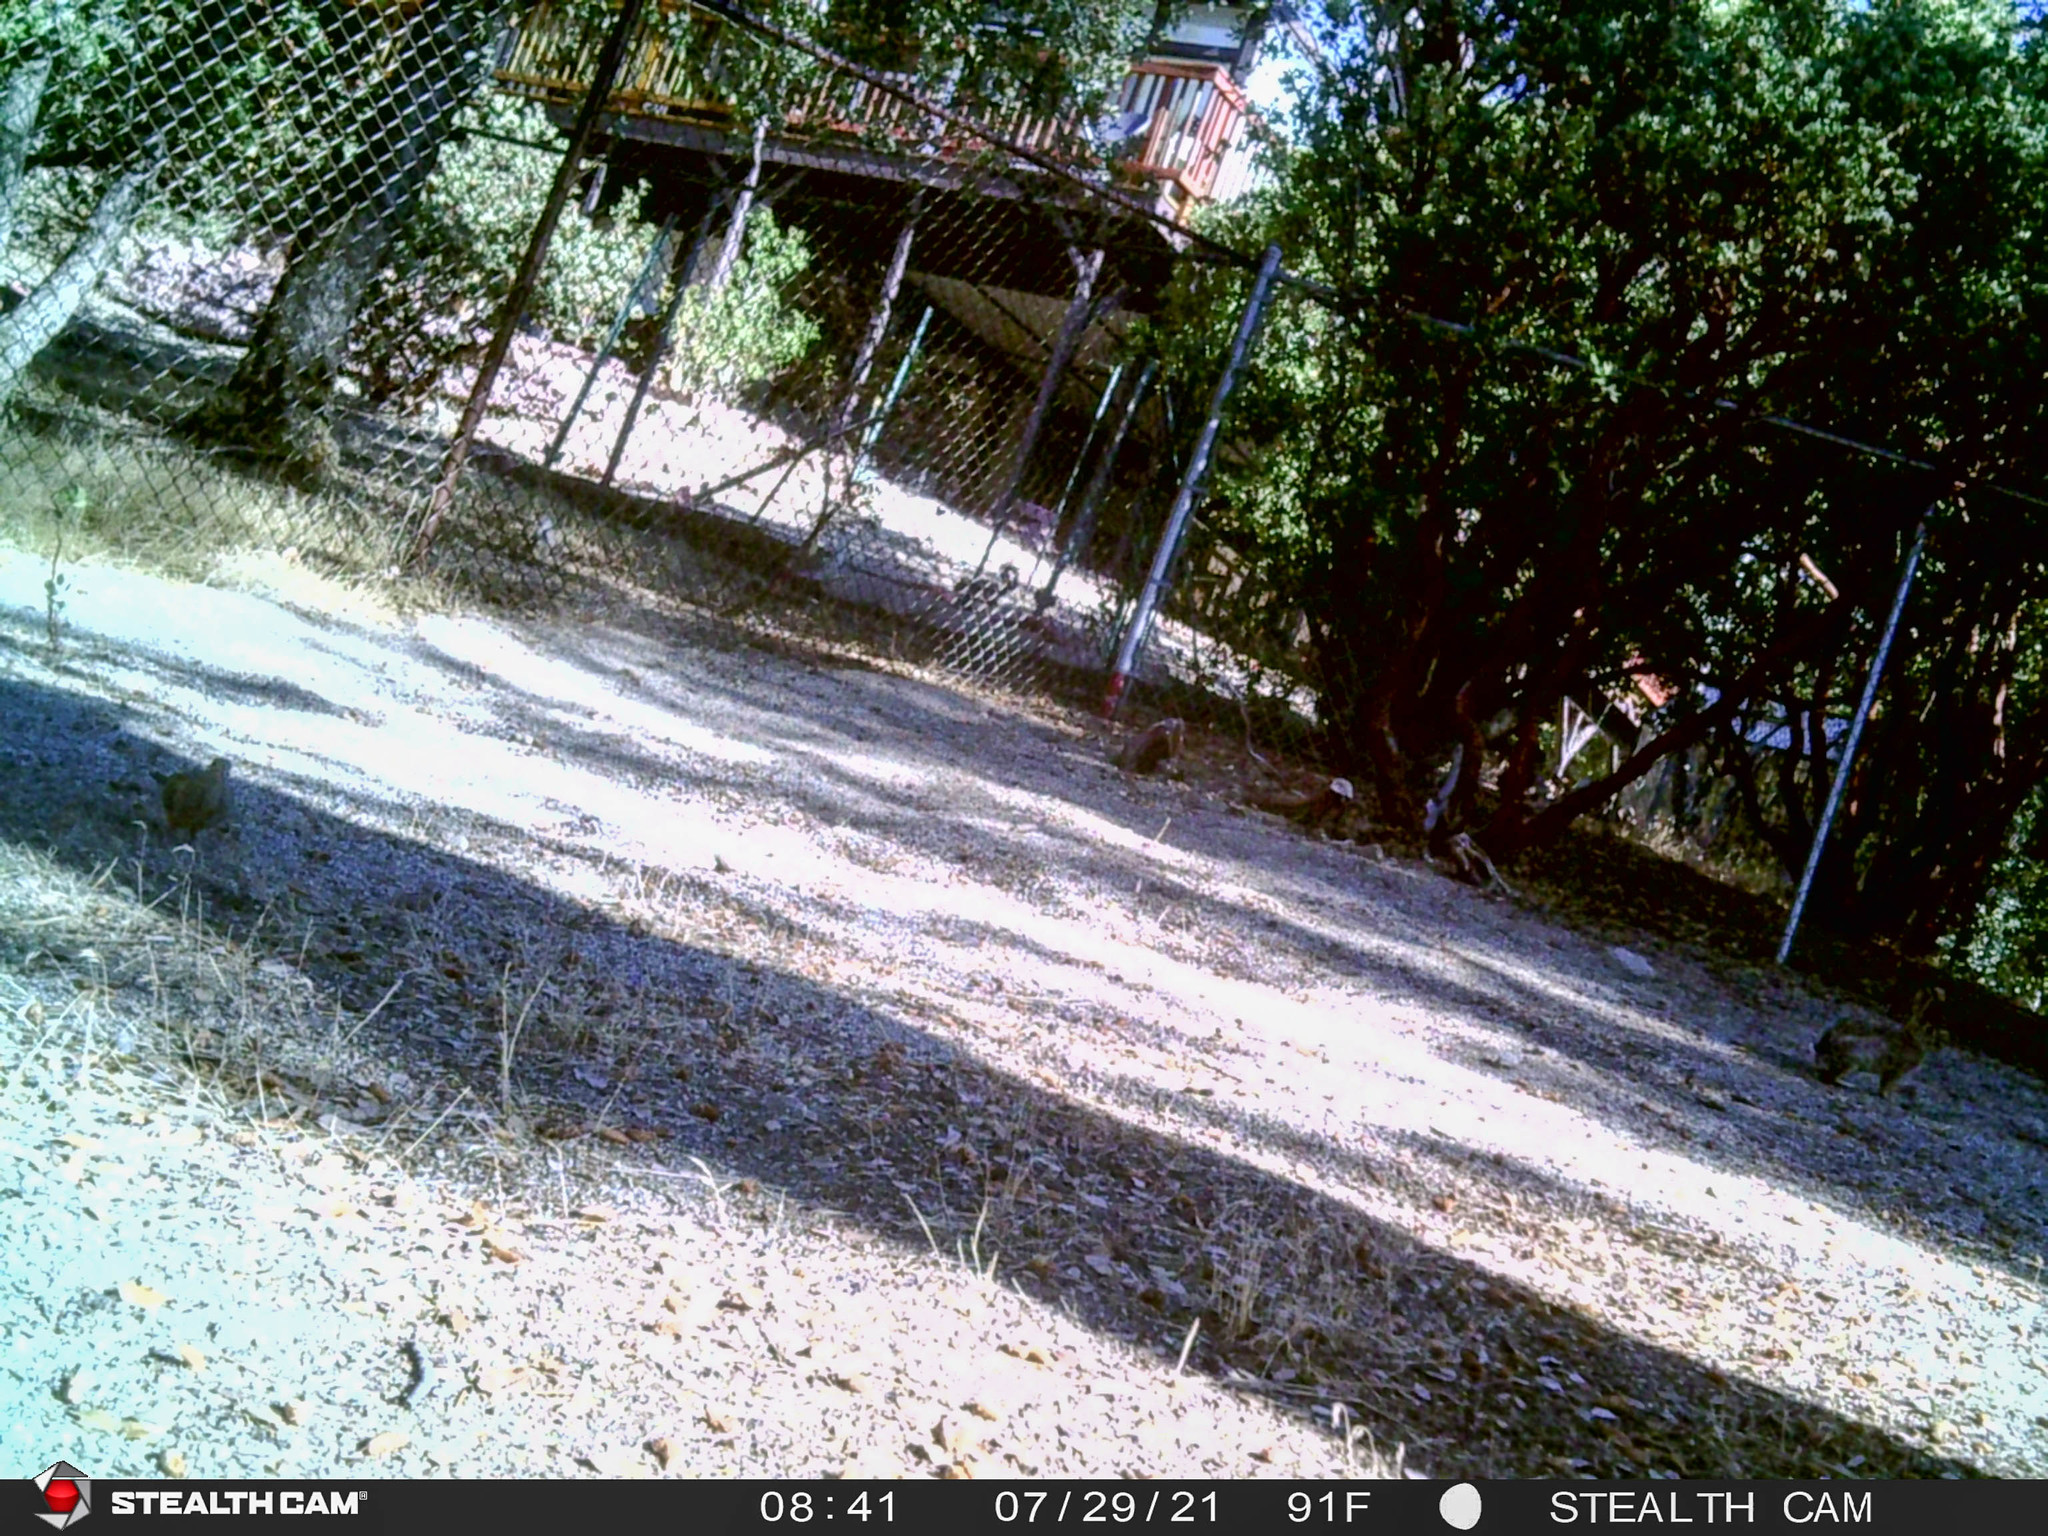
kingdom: Animalia
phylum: Chordata
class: Aves
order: Columbiformes
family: Columbidae
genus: Zenaida
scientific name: Zenaida macroura
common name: Mourning dove
